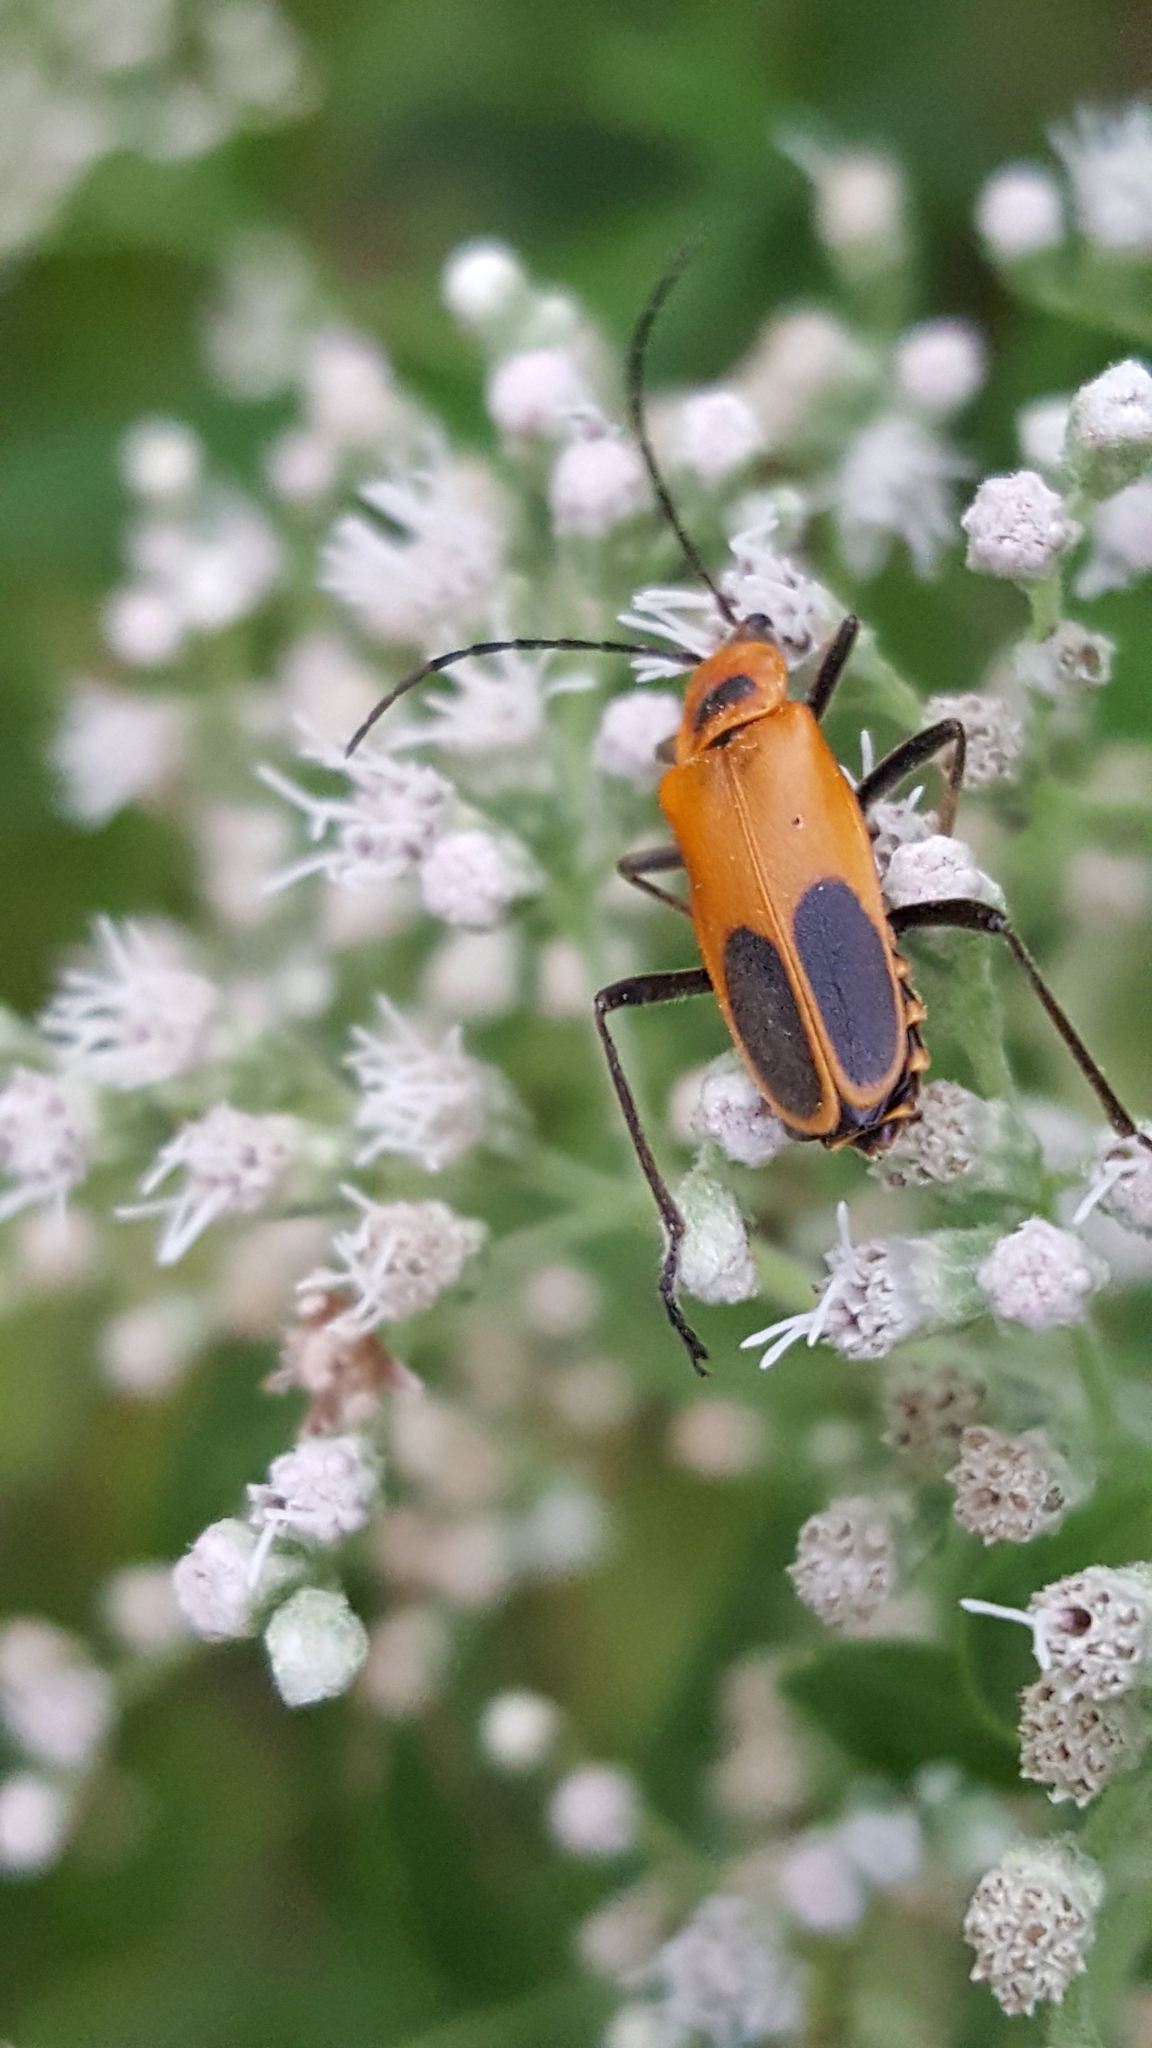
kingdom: Animalia
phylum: Arthropoda
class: Insecta
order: Coleoptera
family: Cantharidae
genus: Chauliognathus
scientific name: Chauliognathus pensylvanicus
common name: Goldenrod soldier beetle
